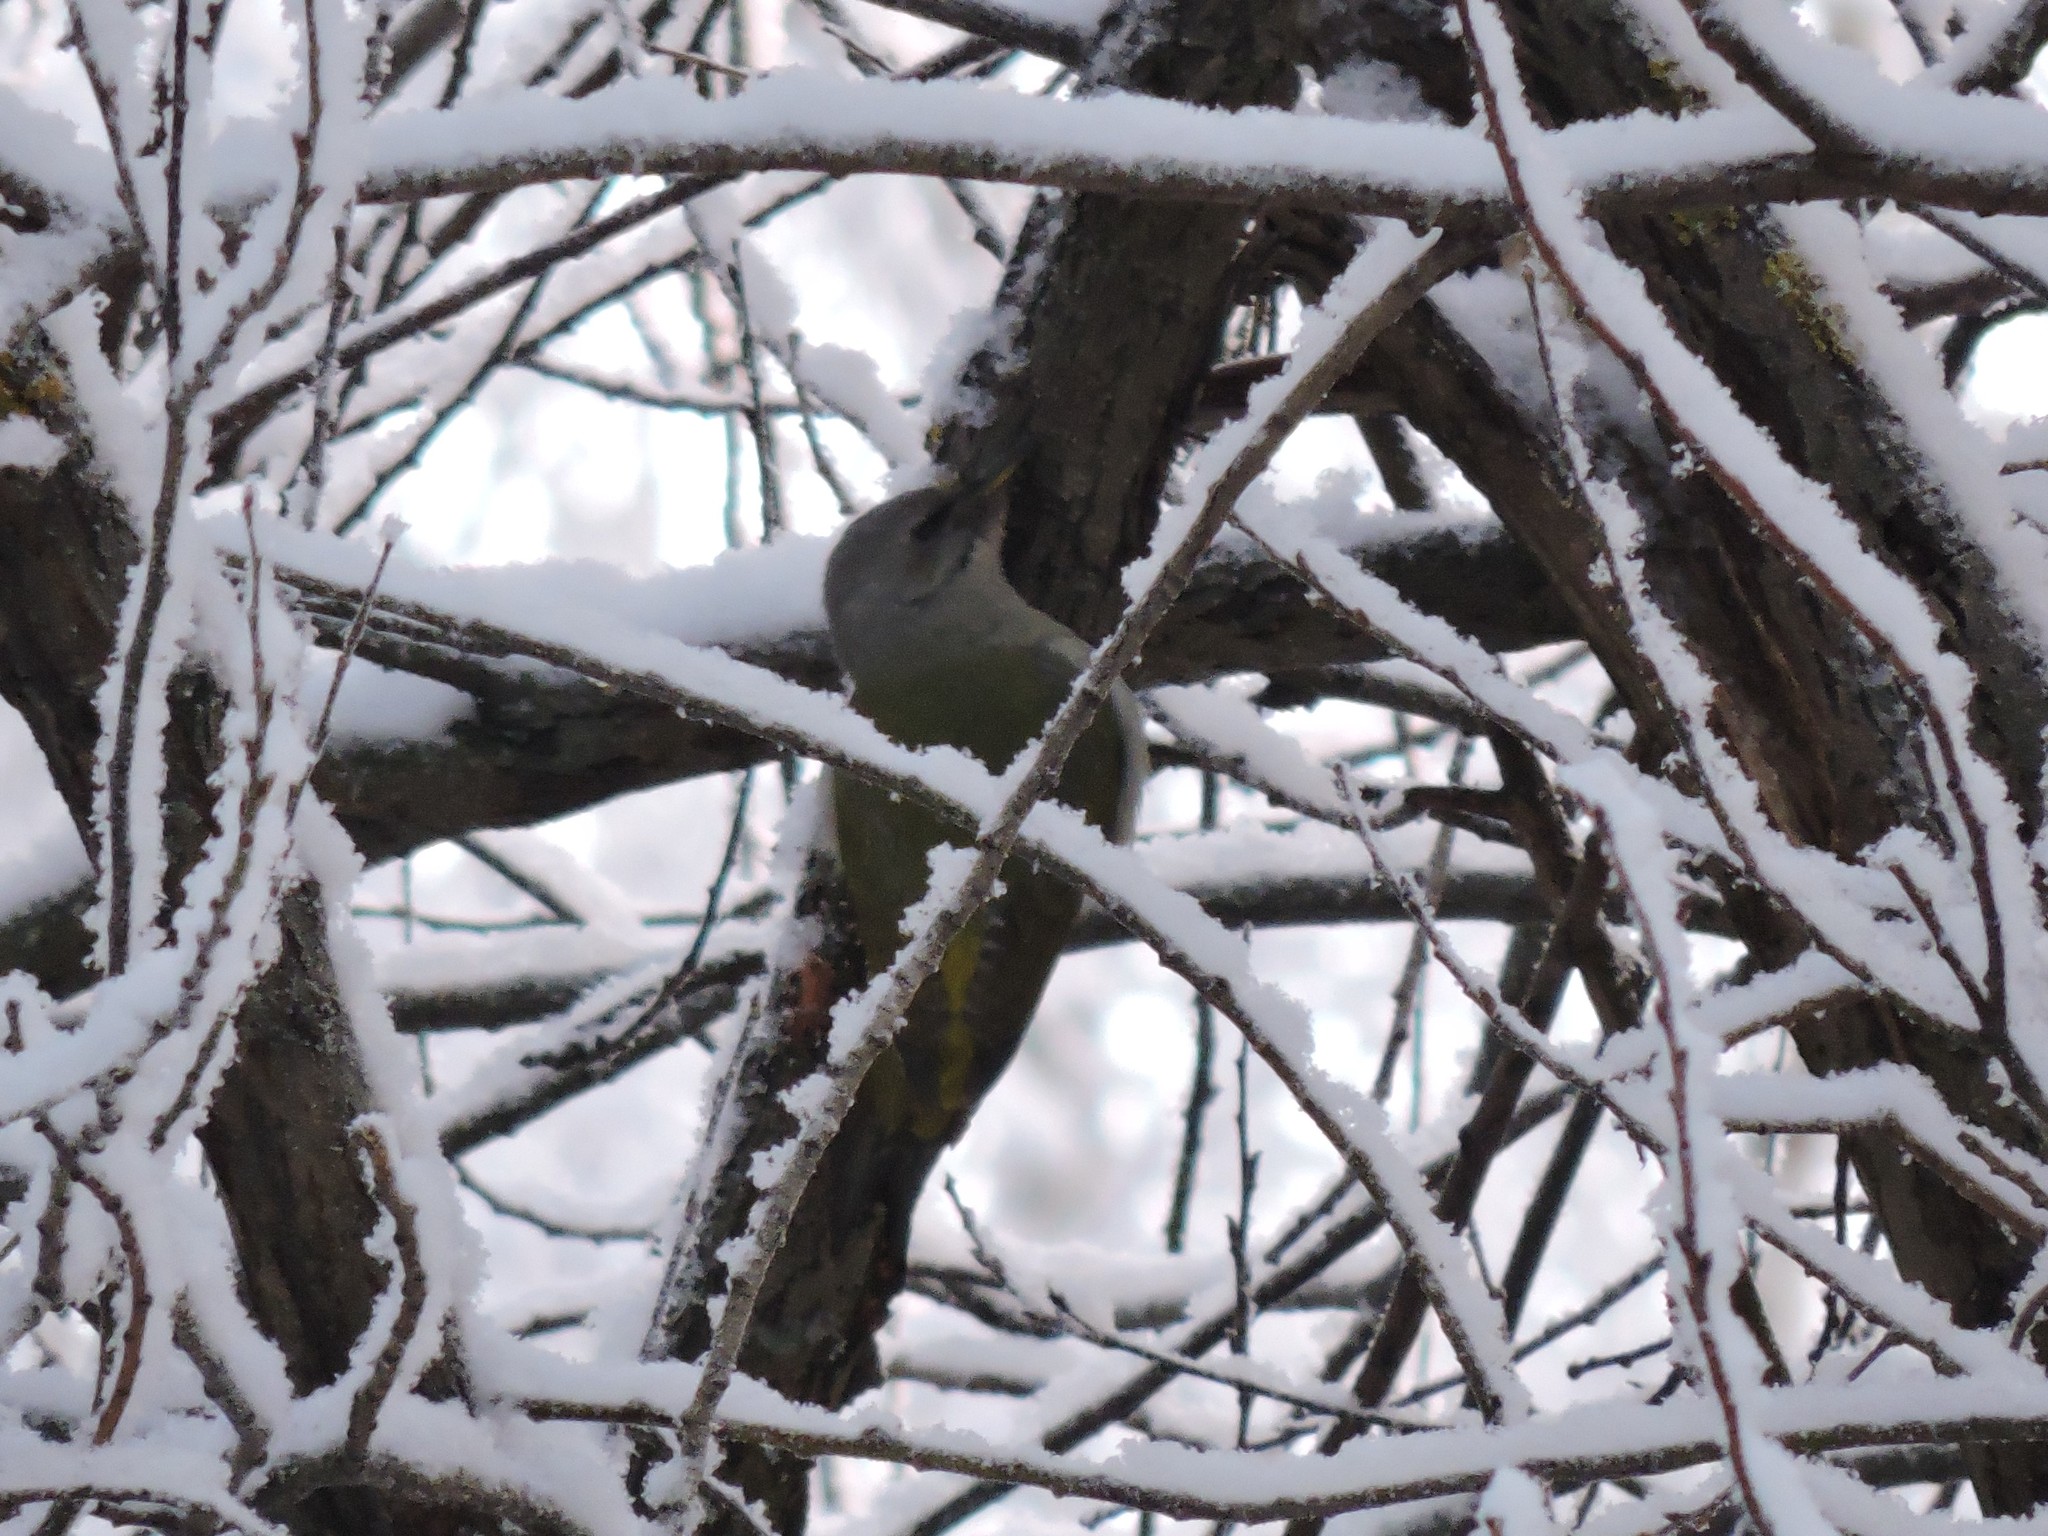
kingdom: Animalia
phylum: Chordata
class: Aves
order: Piciformes
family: Picidae
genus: Picus
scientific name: Picus canus
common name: Grey-headed woodpecker
